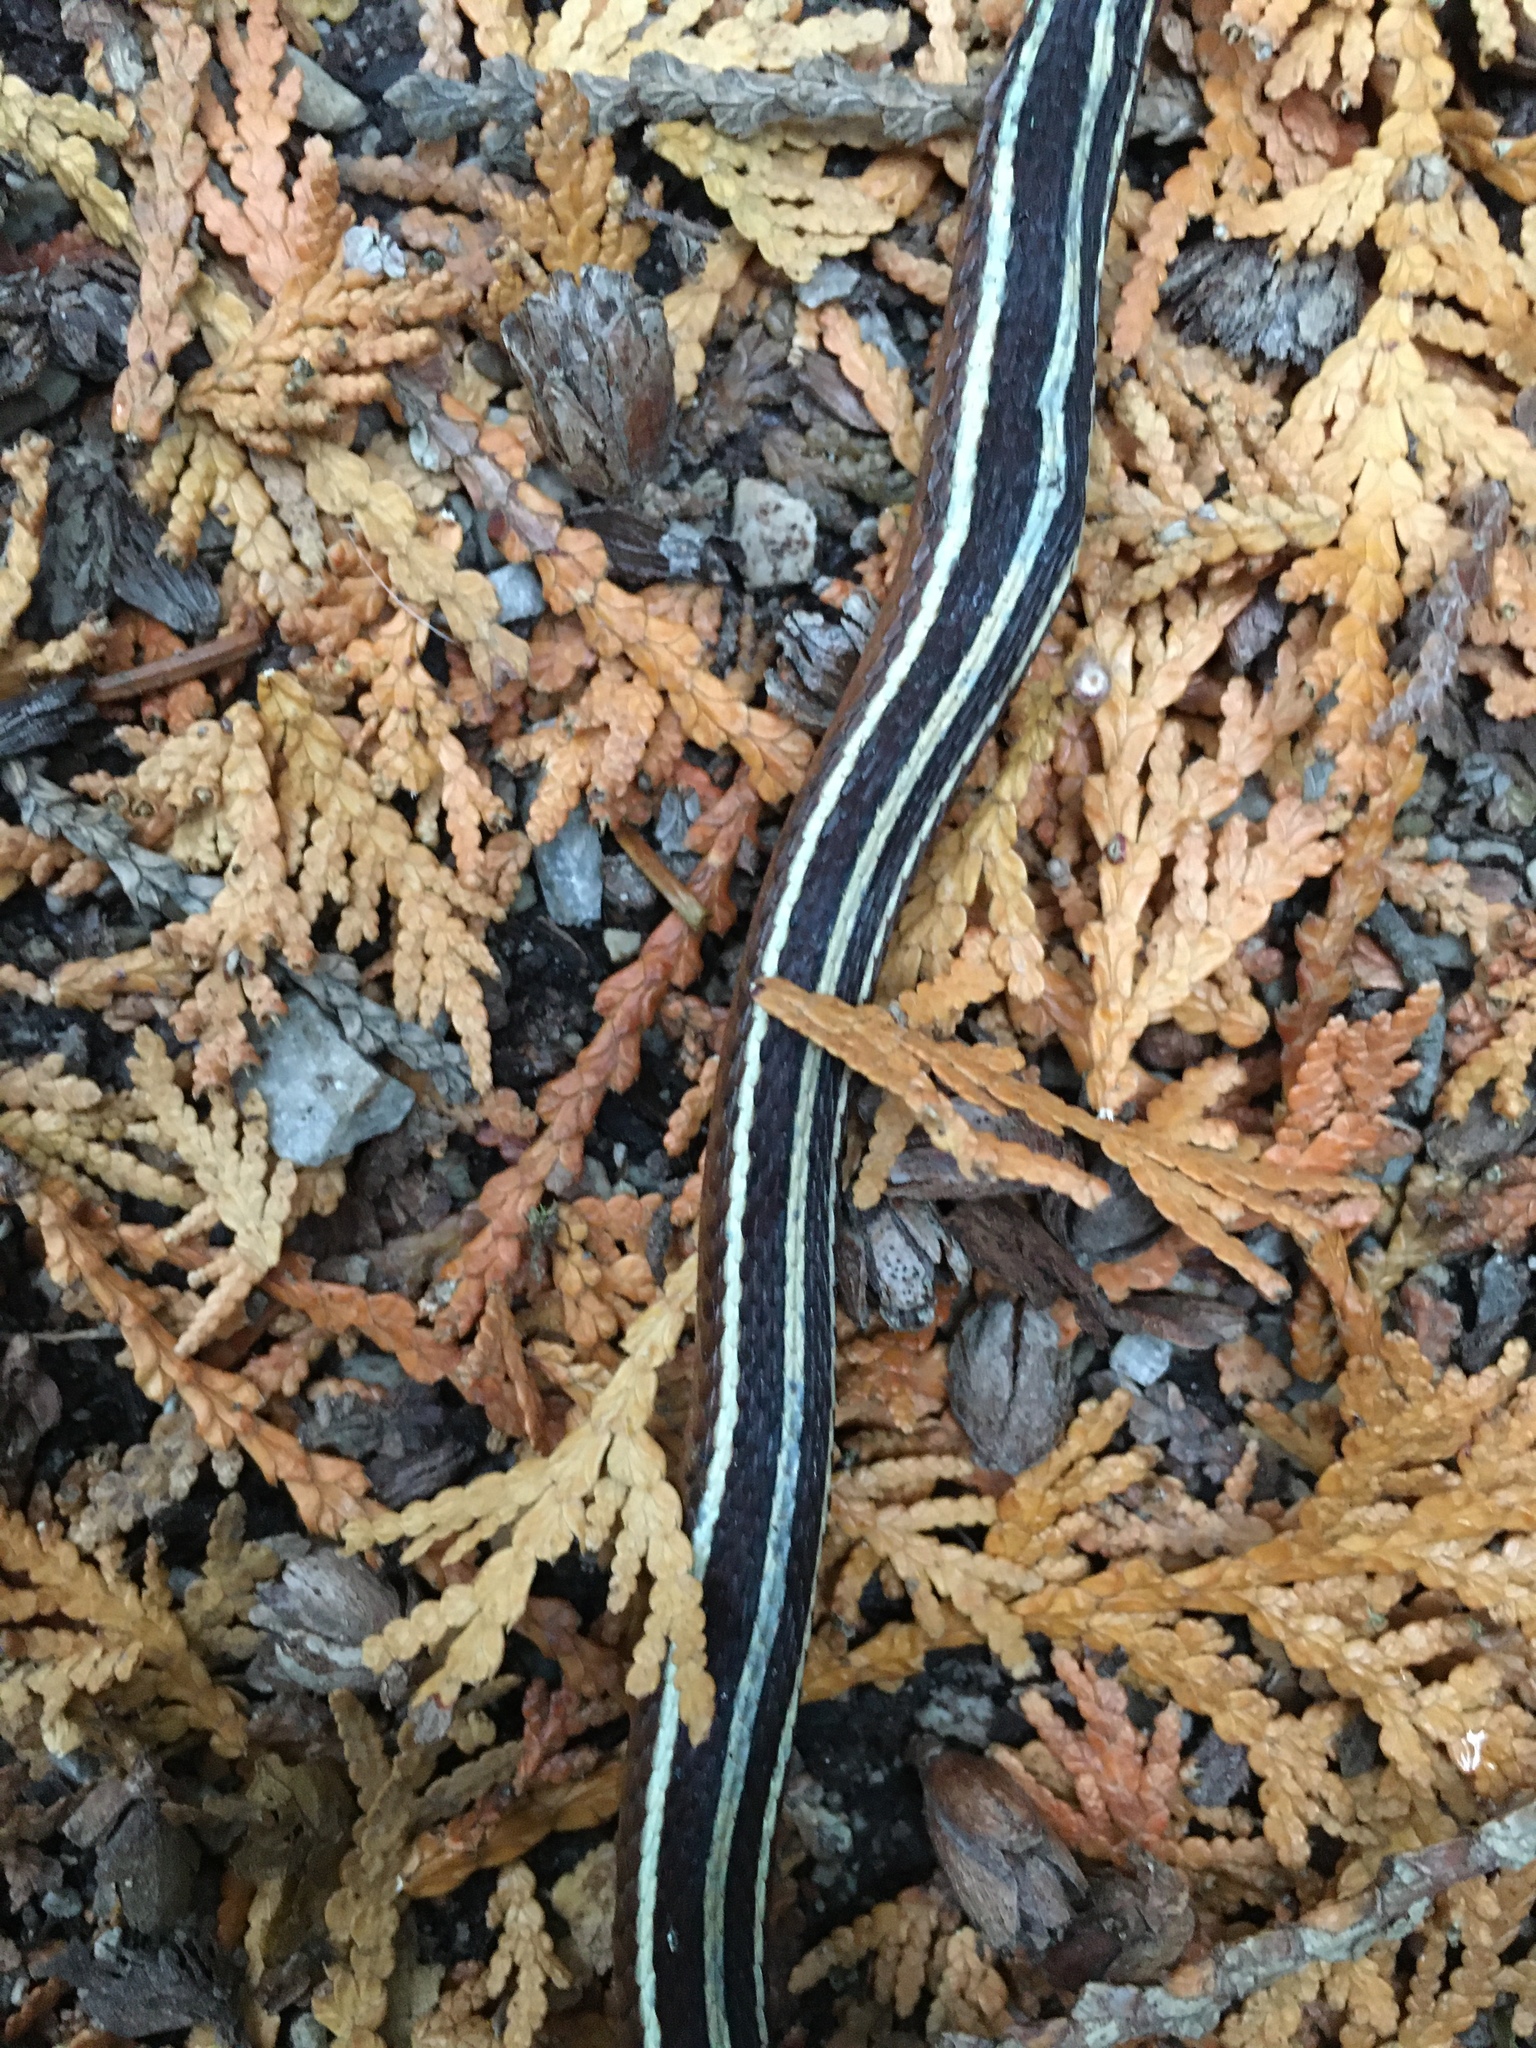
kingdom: Animalia
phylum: Chordata
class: Squamata
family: Colubridae
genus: Thamnophis
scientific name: Thamnophis saurita
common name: Eastern ribbonsnake
